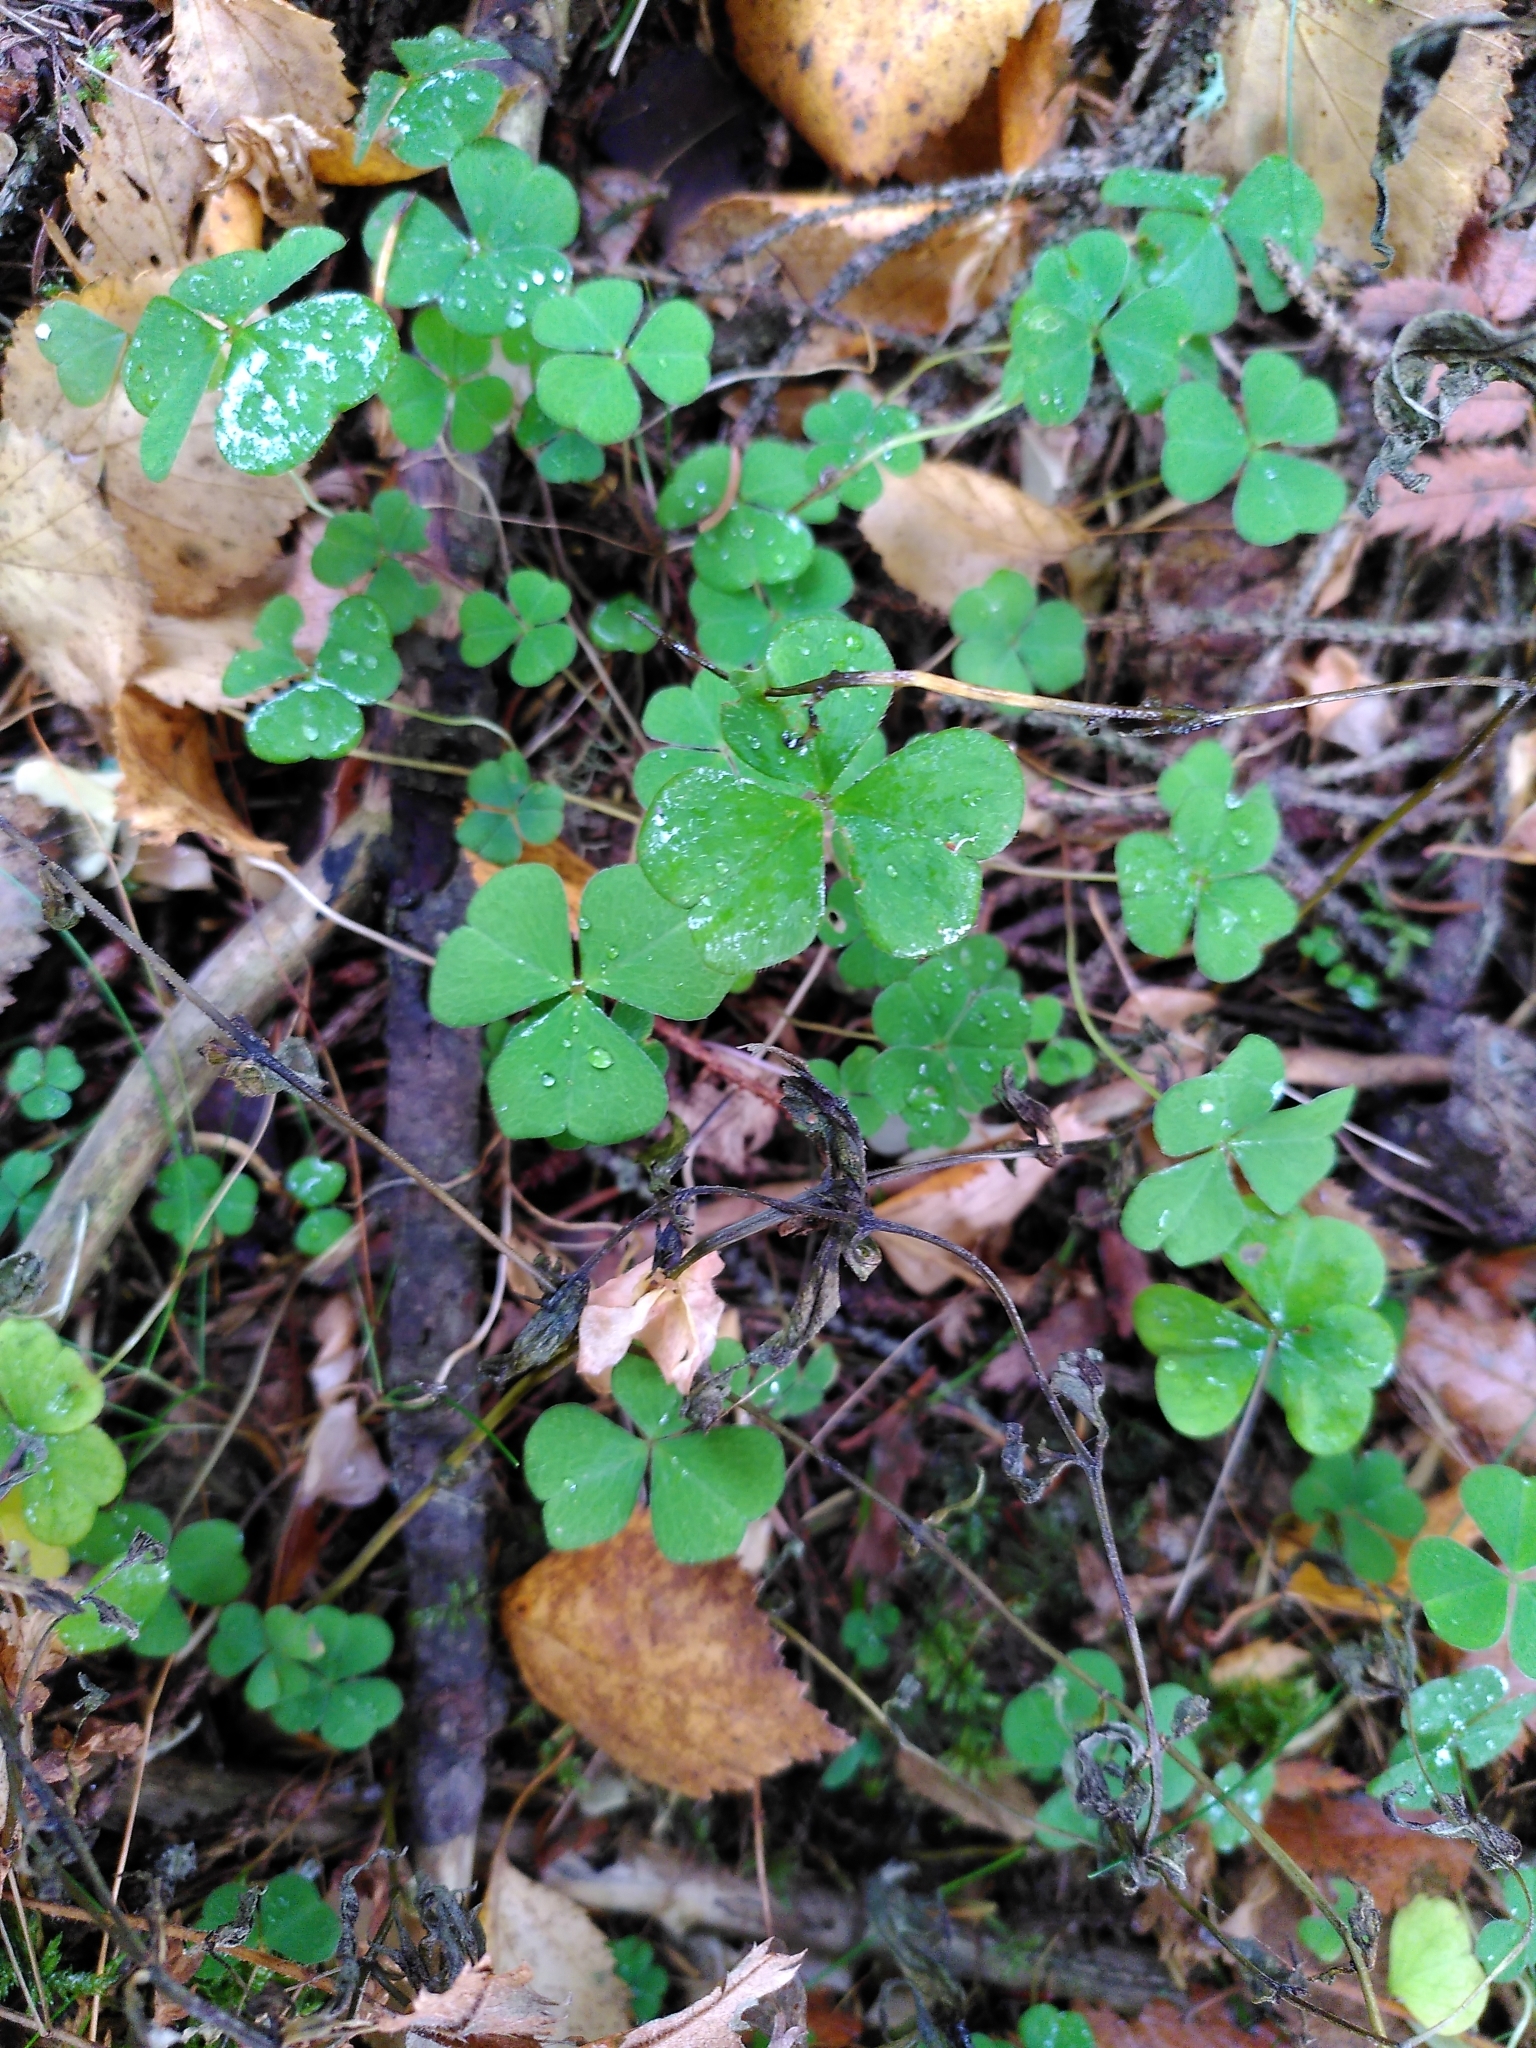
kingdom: Plantae
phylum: Tracheophyta
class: Magnoliopsida
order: Oxalidales
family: Oxalidaceae
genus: Oxalis
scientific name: Oxalis acetosella
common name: Wood-sorrel
